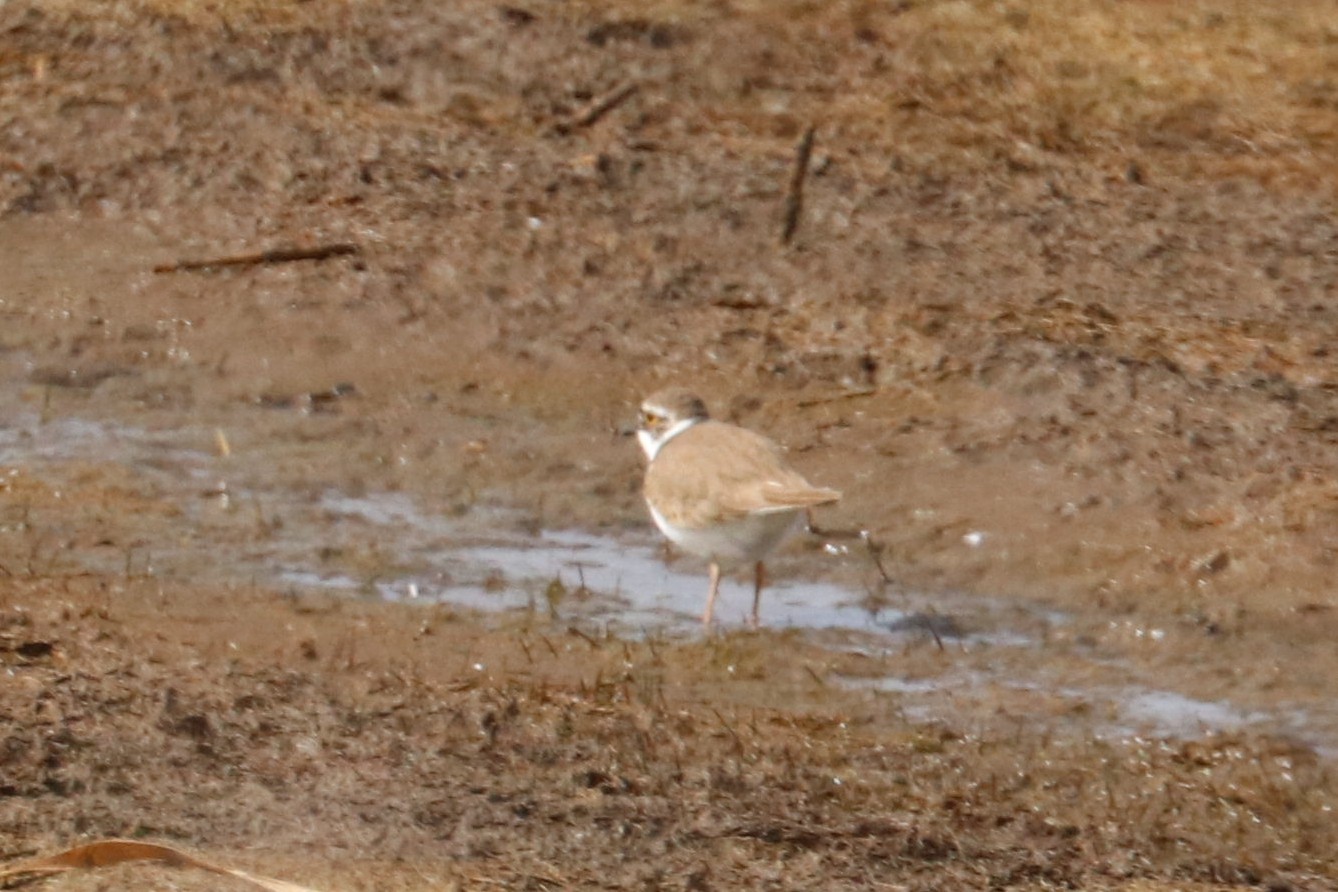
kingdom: Animalia
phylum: Chordata
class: Aves
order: Charadriiformes
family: Charadriidae
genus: Charadrius
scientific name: Charadrius dubius
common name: Little ringed plover
